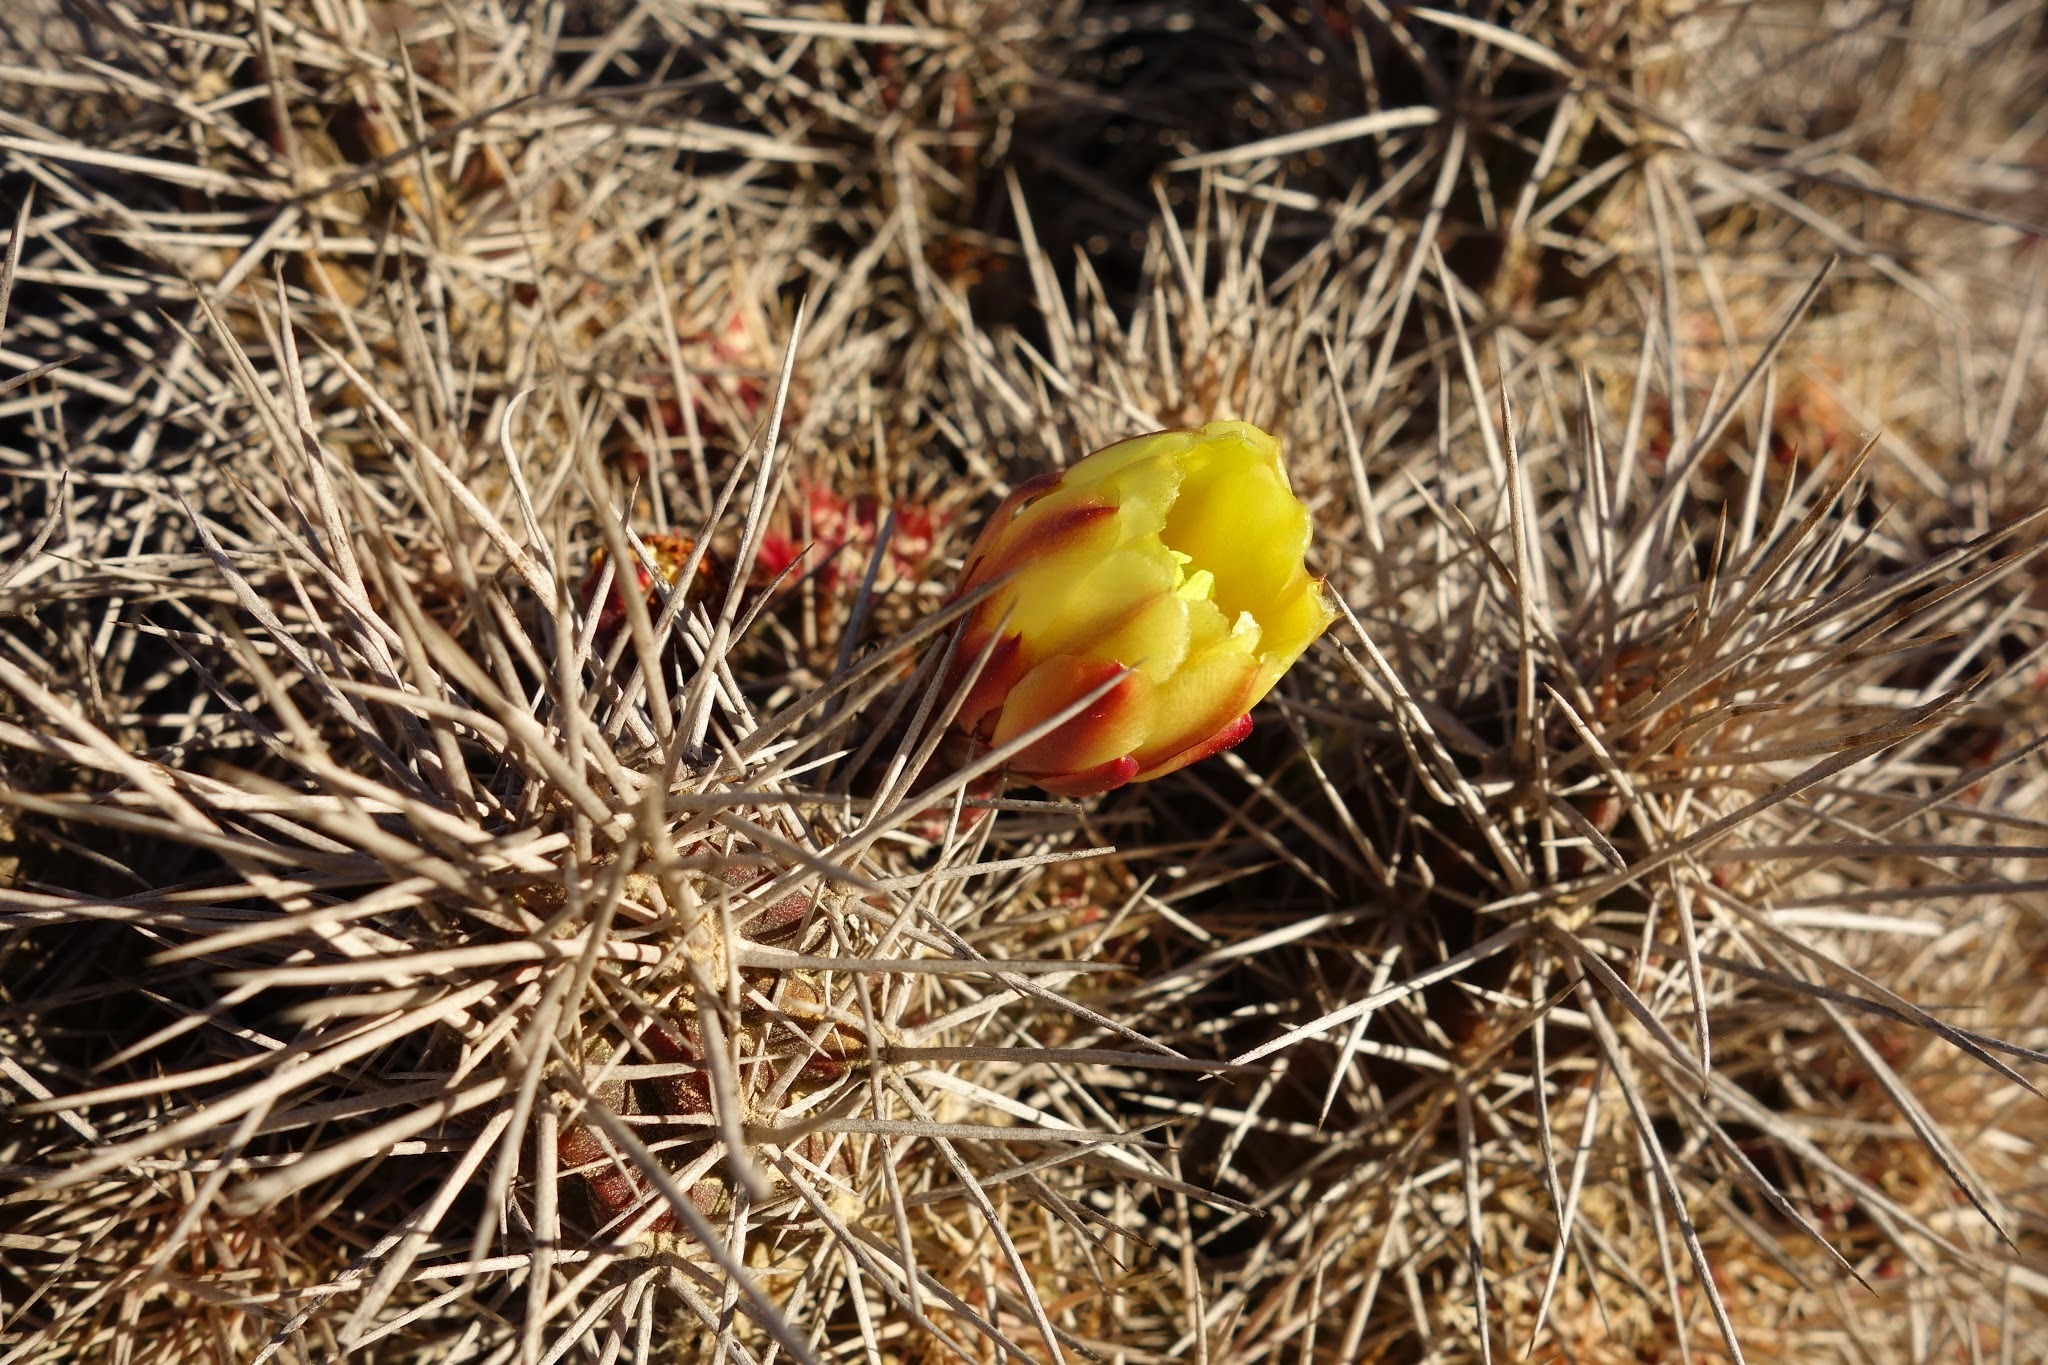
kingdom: Plantae
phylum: Tracheophyta
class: Magnoliopsida
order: Caryophyllales
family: Cactaceae
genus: Echinocereus
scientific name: Echinocereus maritimus
